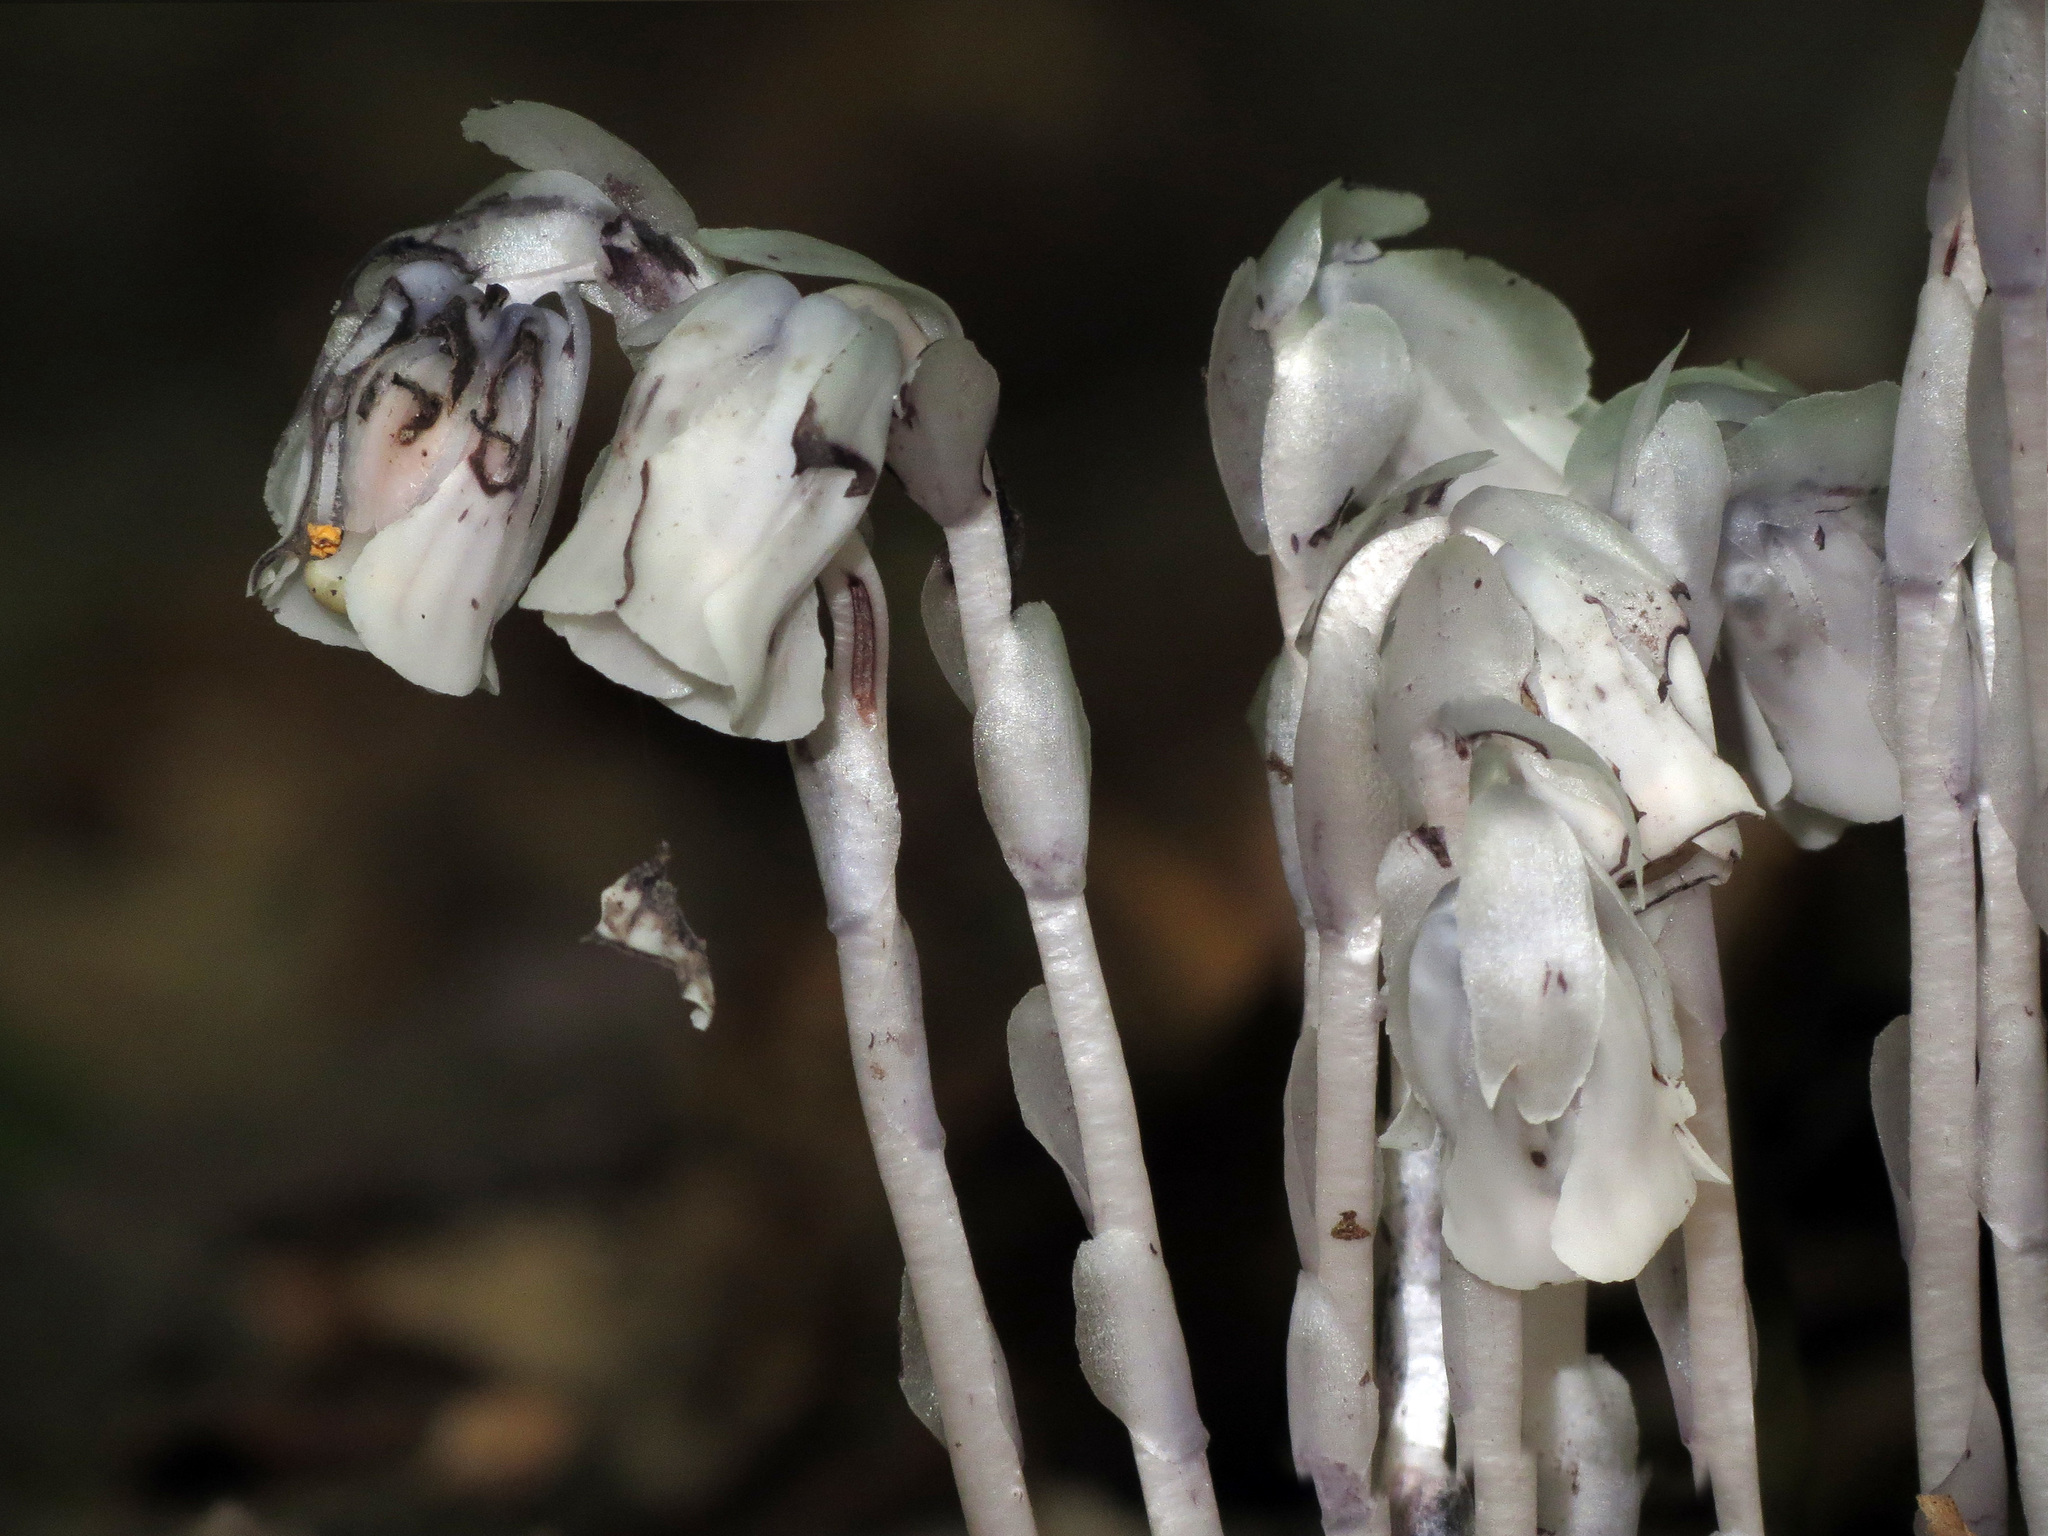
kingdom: Plantae
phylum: Tracheophyta
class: Magnoliopsida
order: Ericales
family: Ericaceae
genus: Monotropa
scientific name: Monotropa uniflora
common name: Convulsion root
